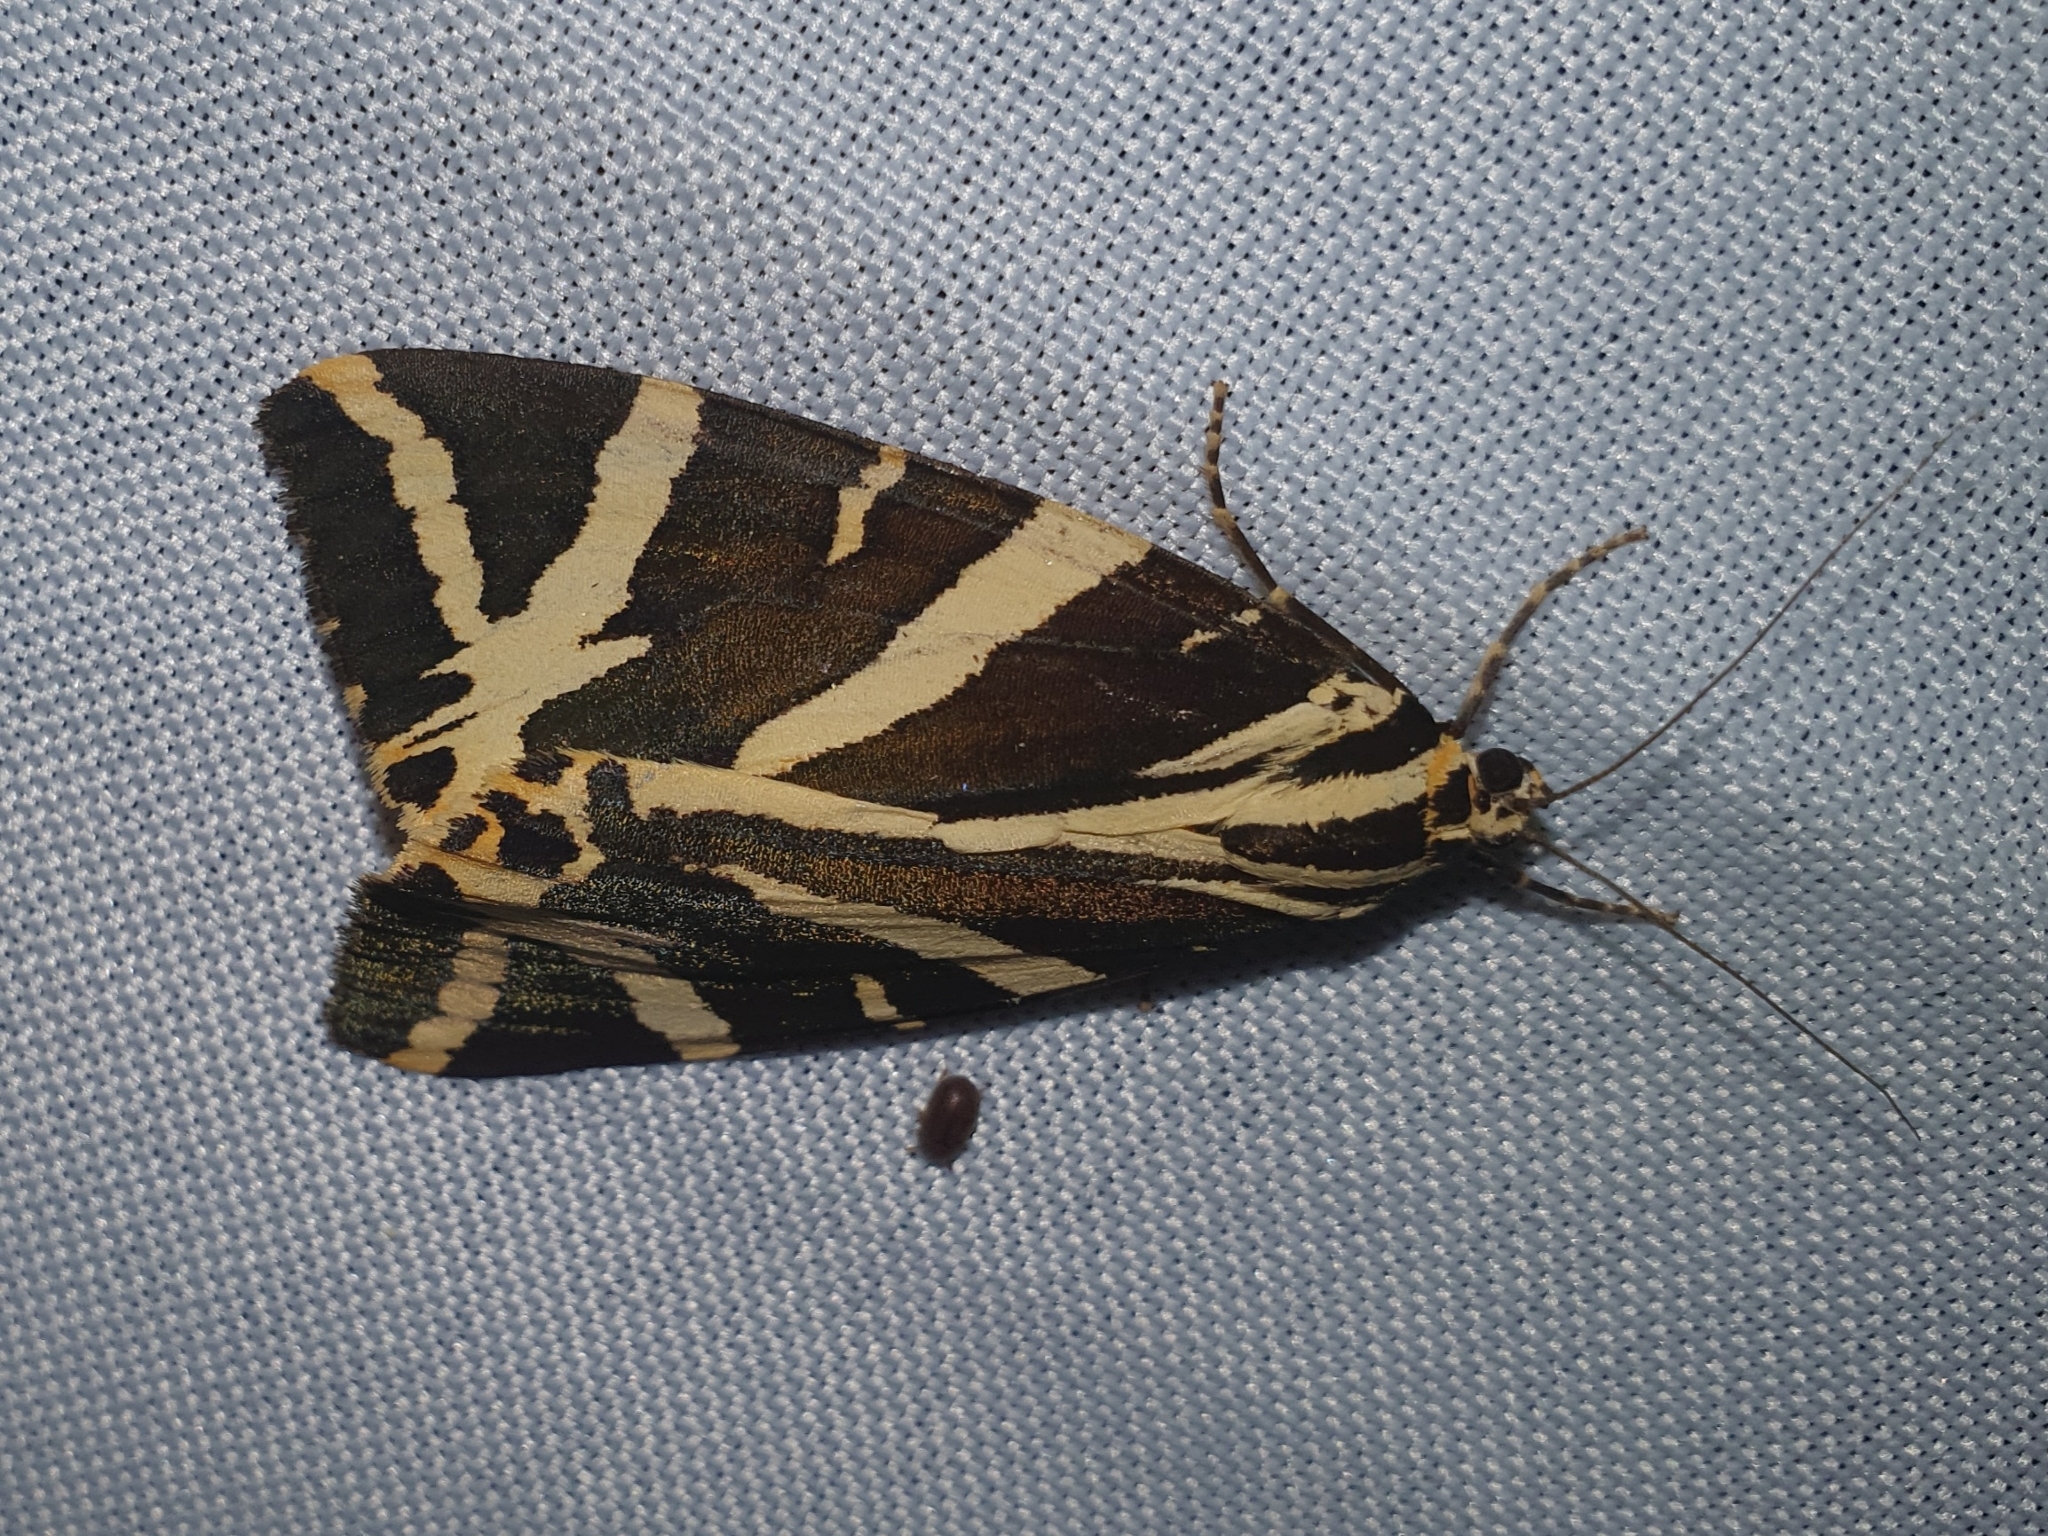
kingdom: Animalia
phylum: Arthropoda
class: Insecta
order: Lepidoptera
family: Erebidae
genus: Euplagia
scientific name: Euplagia quadripunctaria
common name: Jersey tiger
